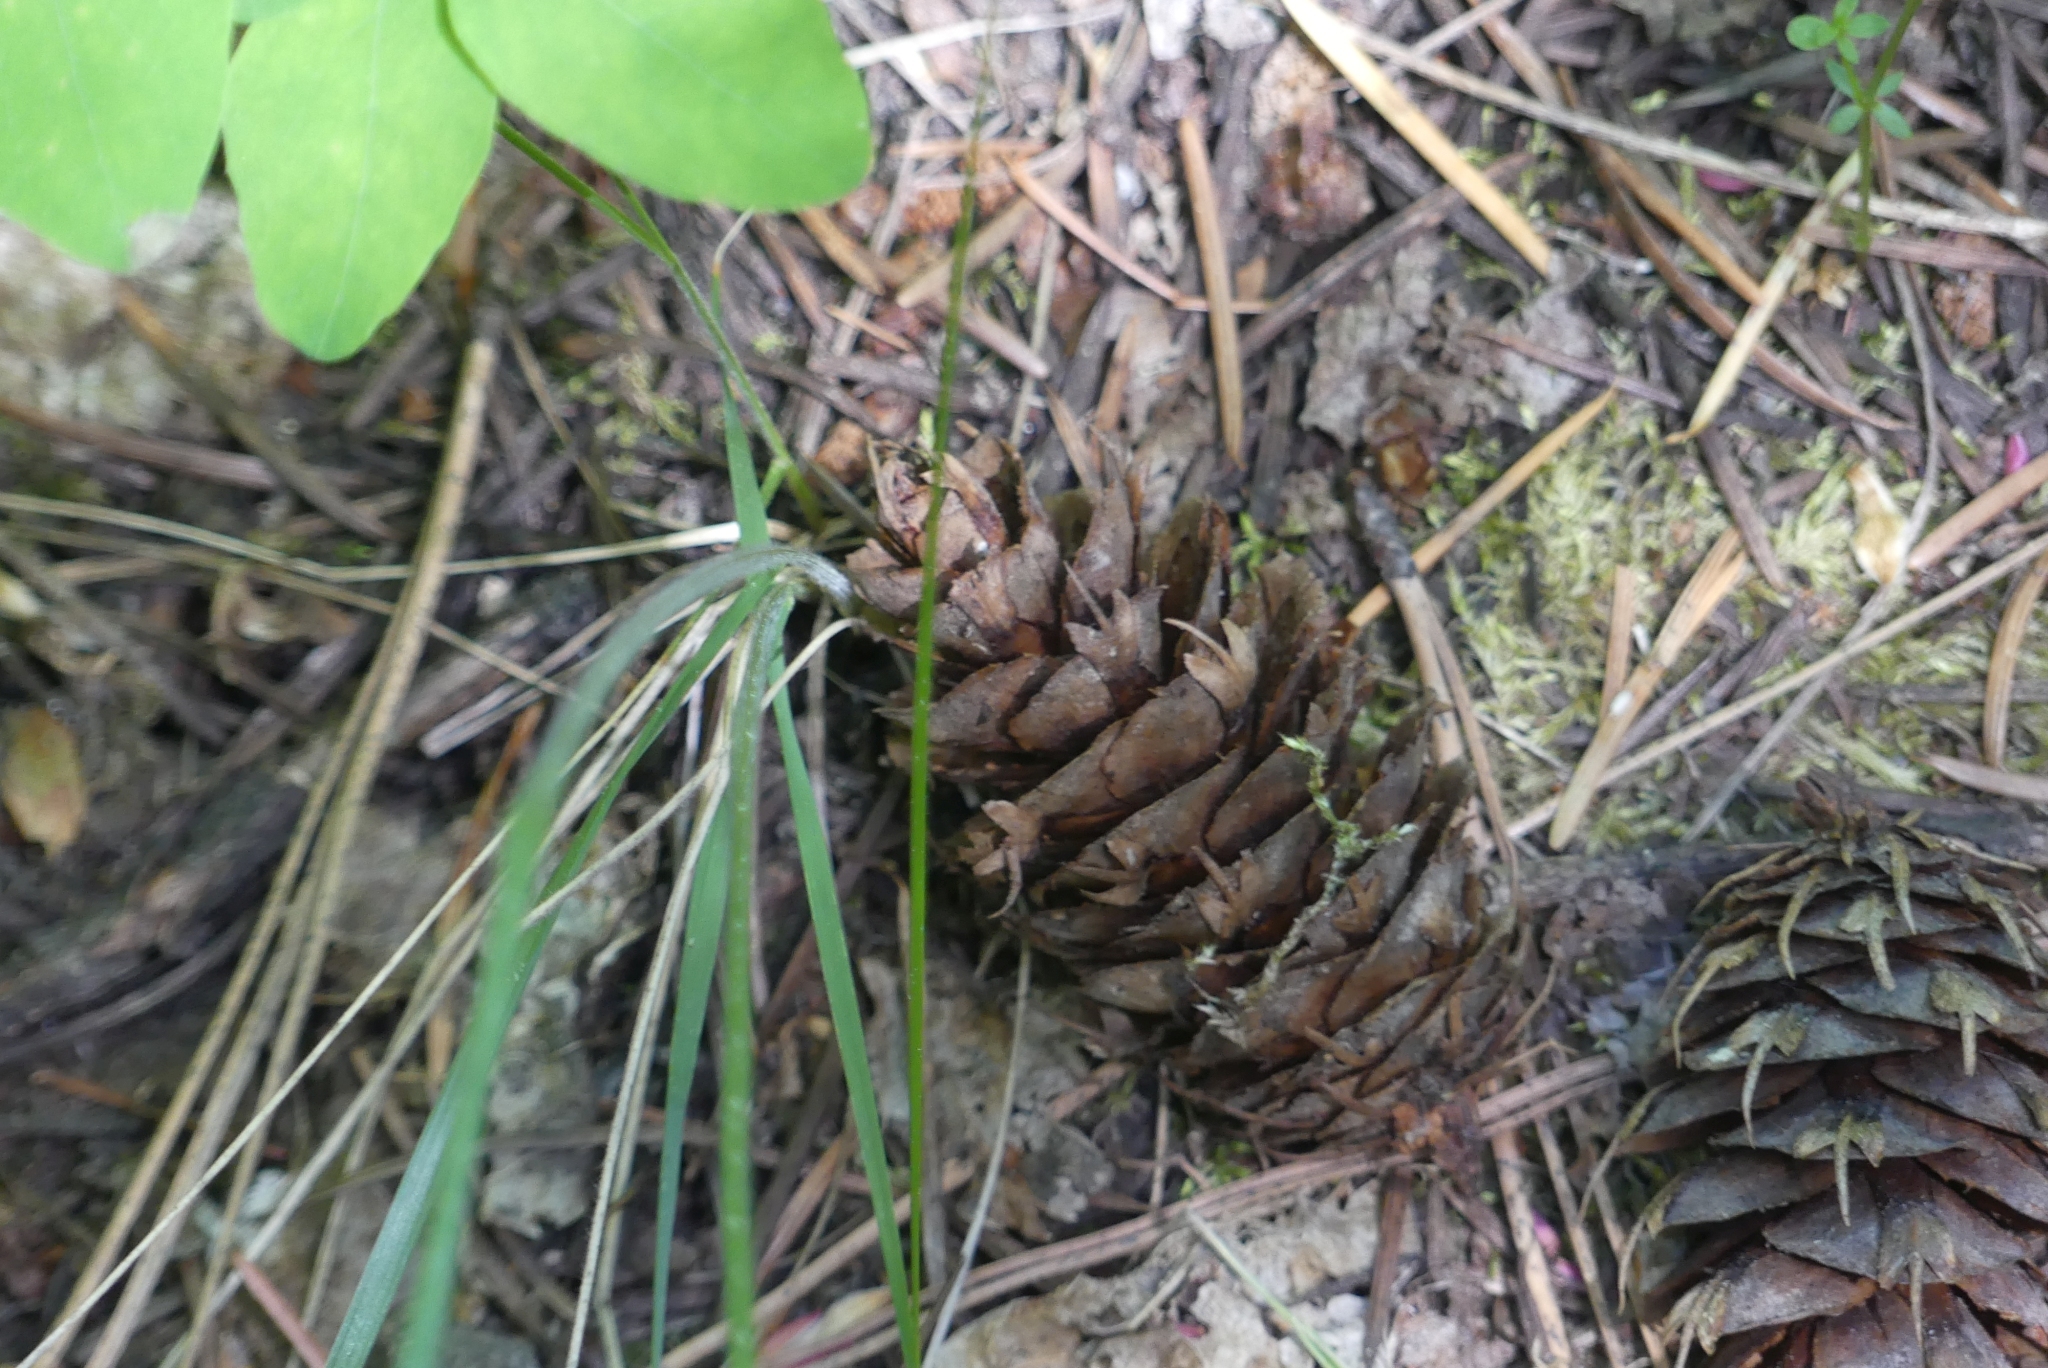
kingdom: Plantae
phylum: Tracheophyta
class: Pinopsida
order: Pinales
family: Pinaceae
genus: Pseudotsuga
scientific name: Pseudotsuga menziesii
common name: Douglas fir
